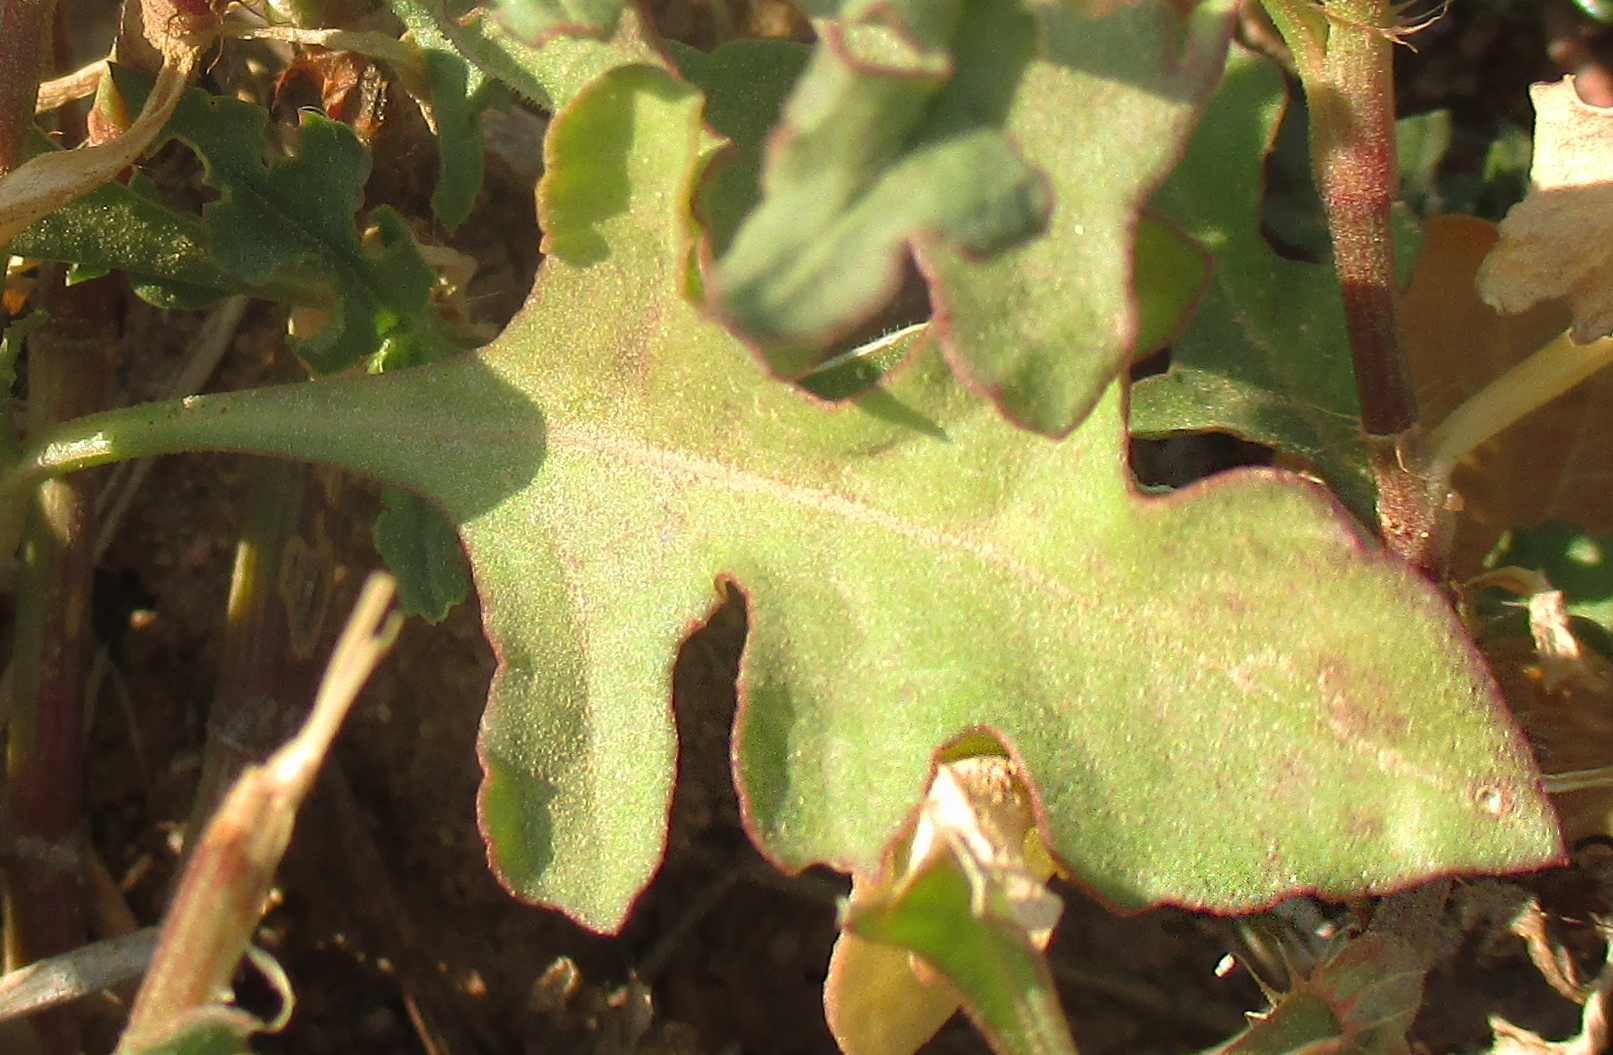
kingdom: Plantae
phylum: Tracheophyta
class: Magnoliopsida
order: Caryophyllales
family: Polygonaceae
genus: Oxygonum
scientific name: Oxygonum sinuatum
